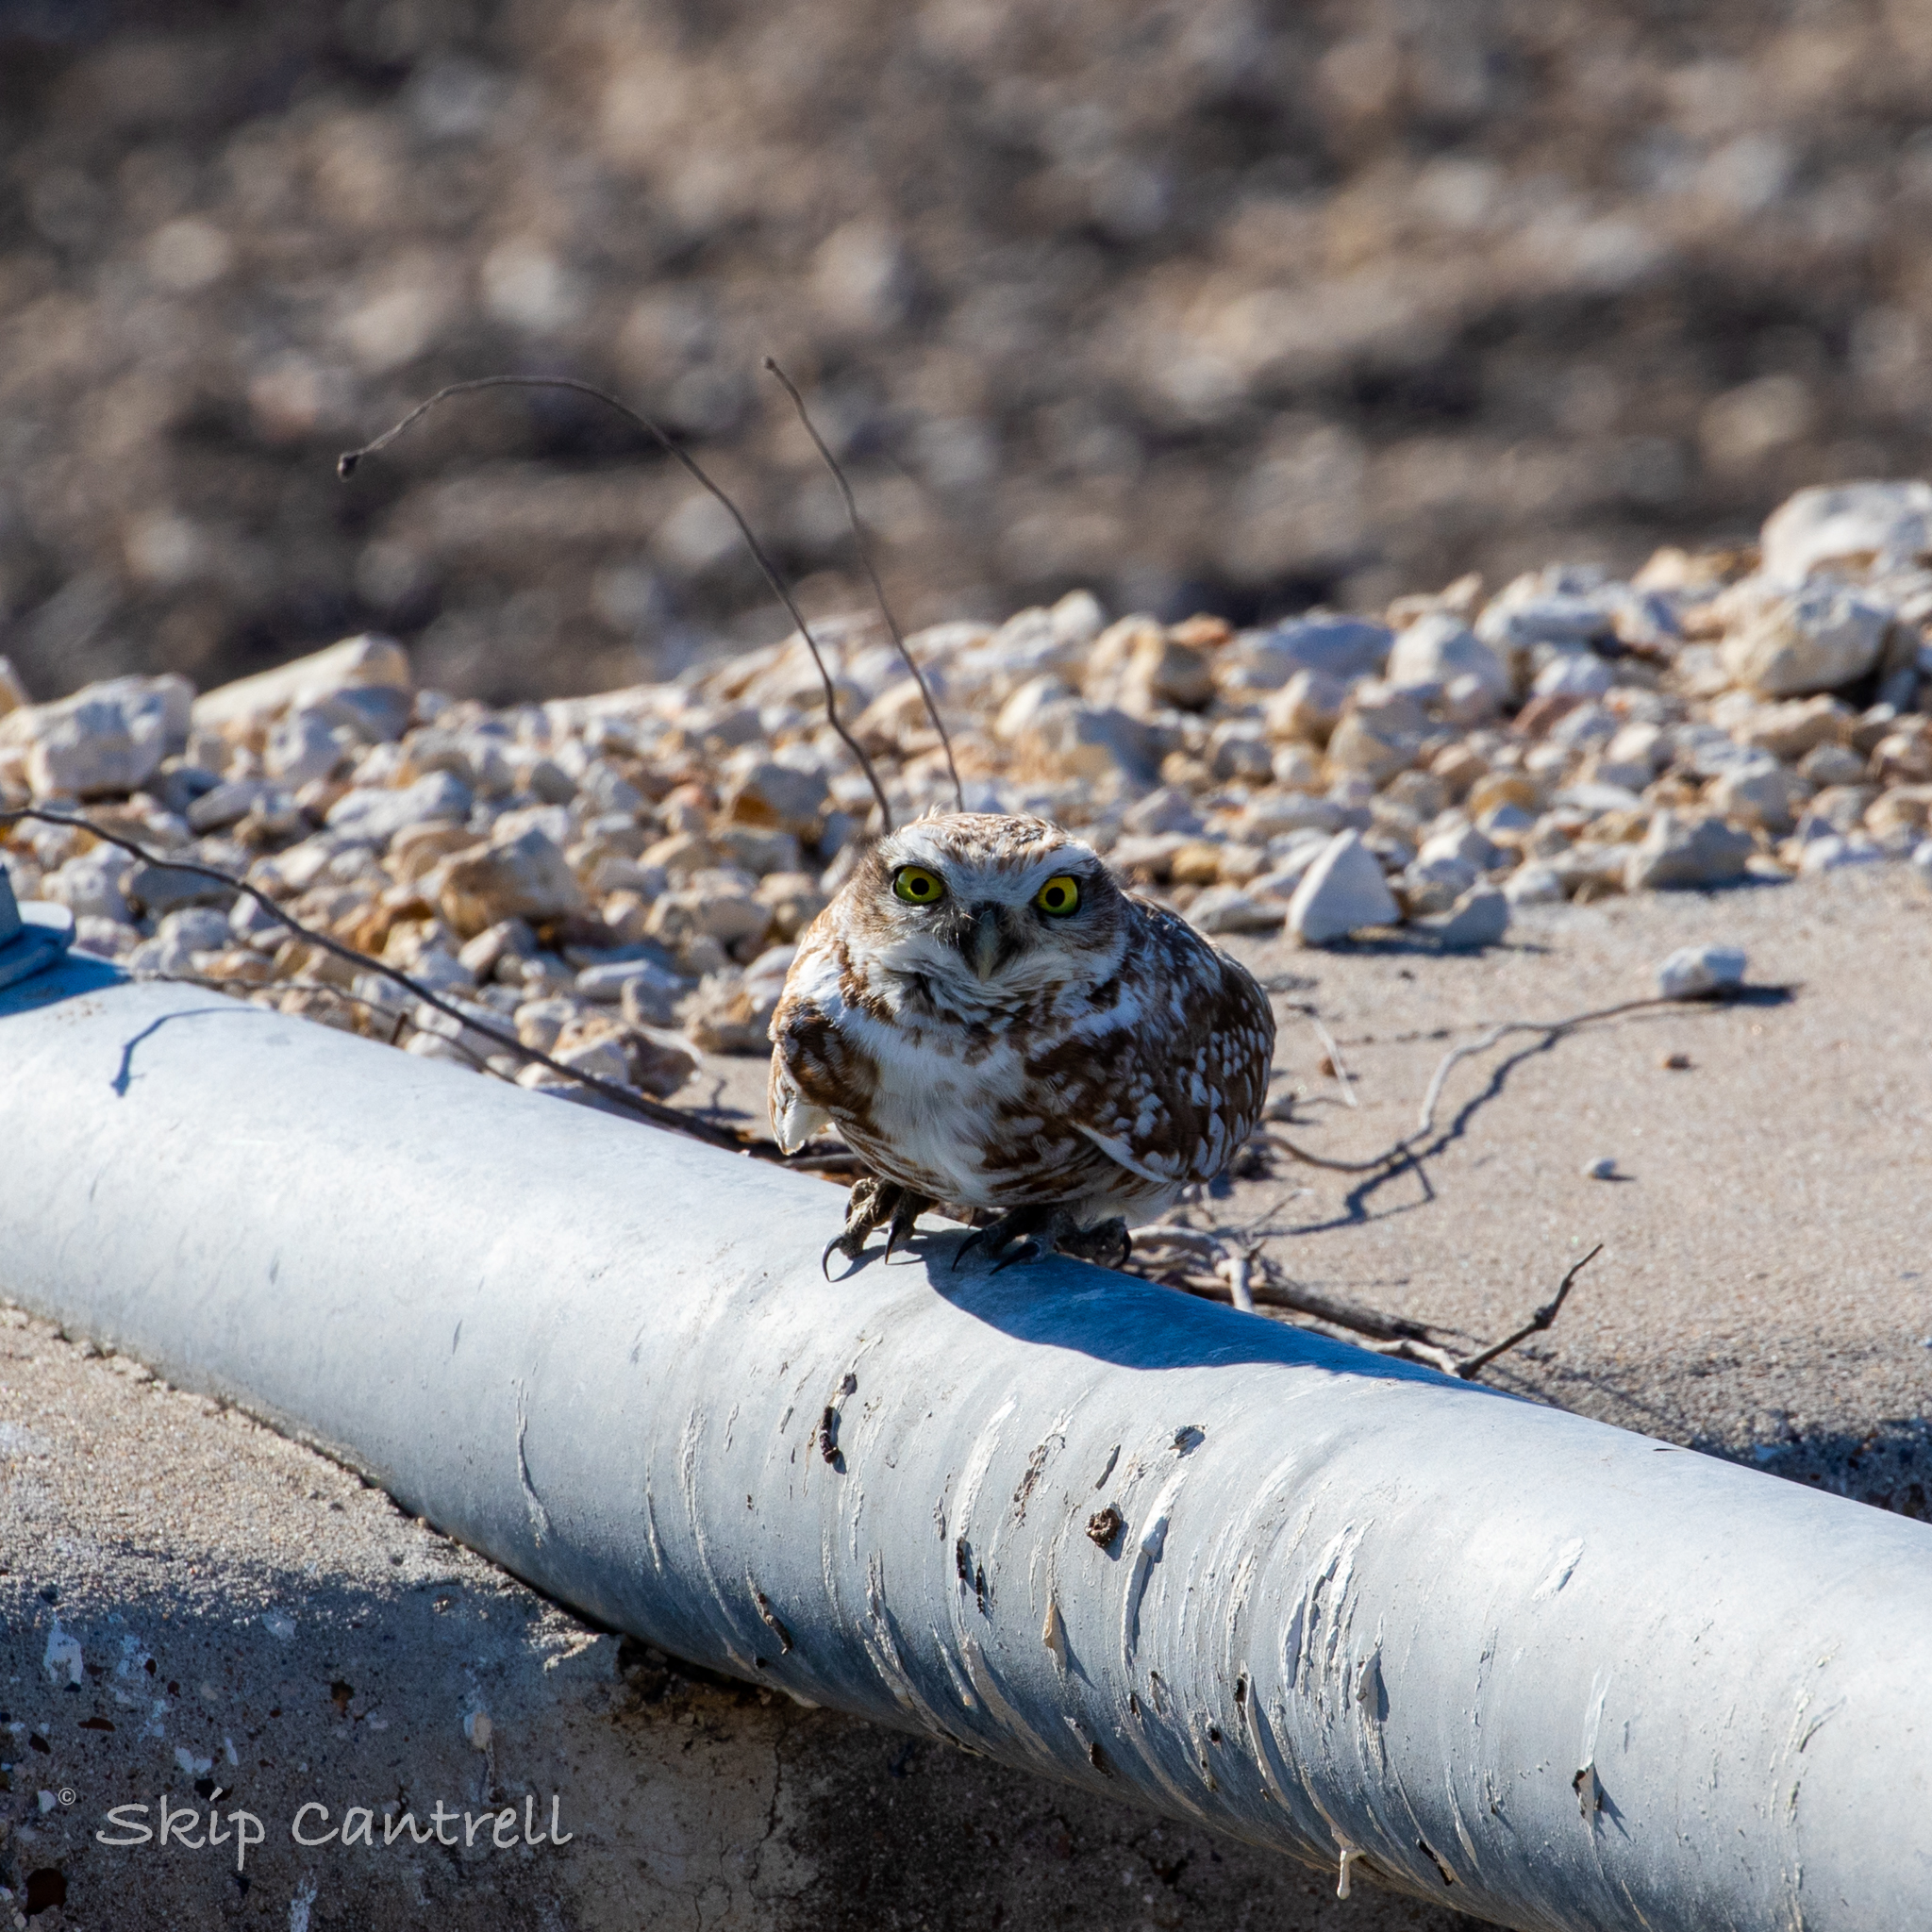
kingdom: Animalia
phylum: Chordata
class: Aves
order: Strigiformes
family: Strigidae
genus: Athene
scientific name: Athene cunicularia
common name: Burrowing owl
